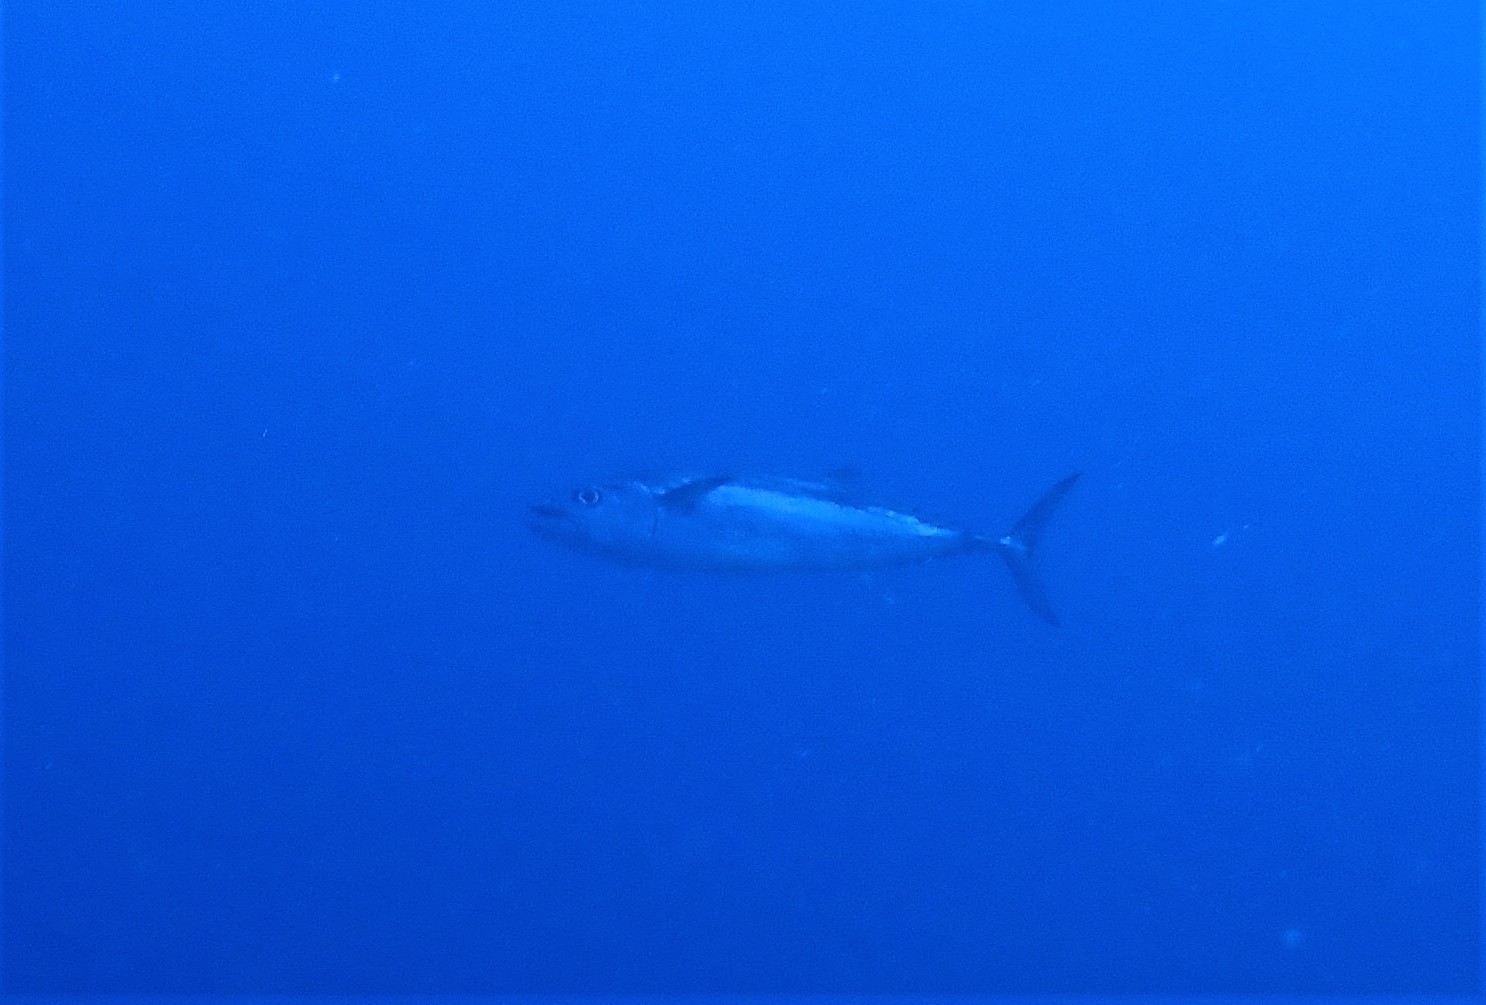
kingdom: Animalia
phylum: Chordata
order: Perciformes
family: Scombridae
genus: Gymnosarda
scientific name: Gymnosarda unicolor
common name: Dogtooth tuna
